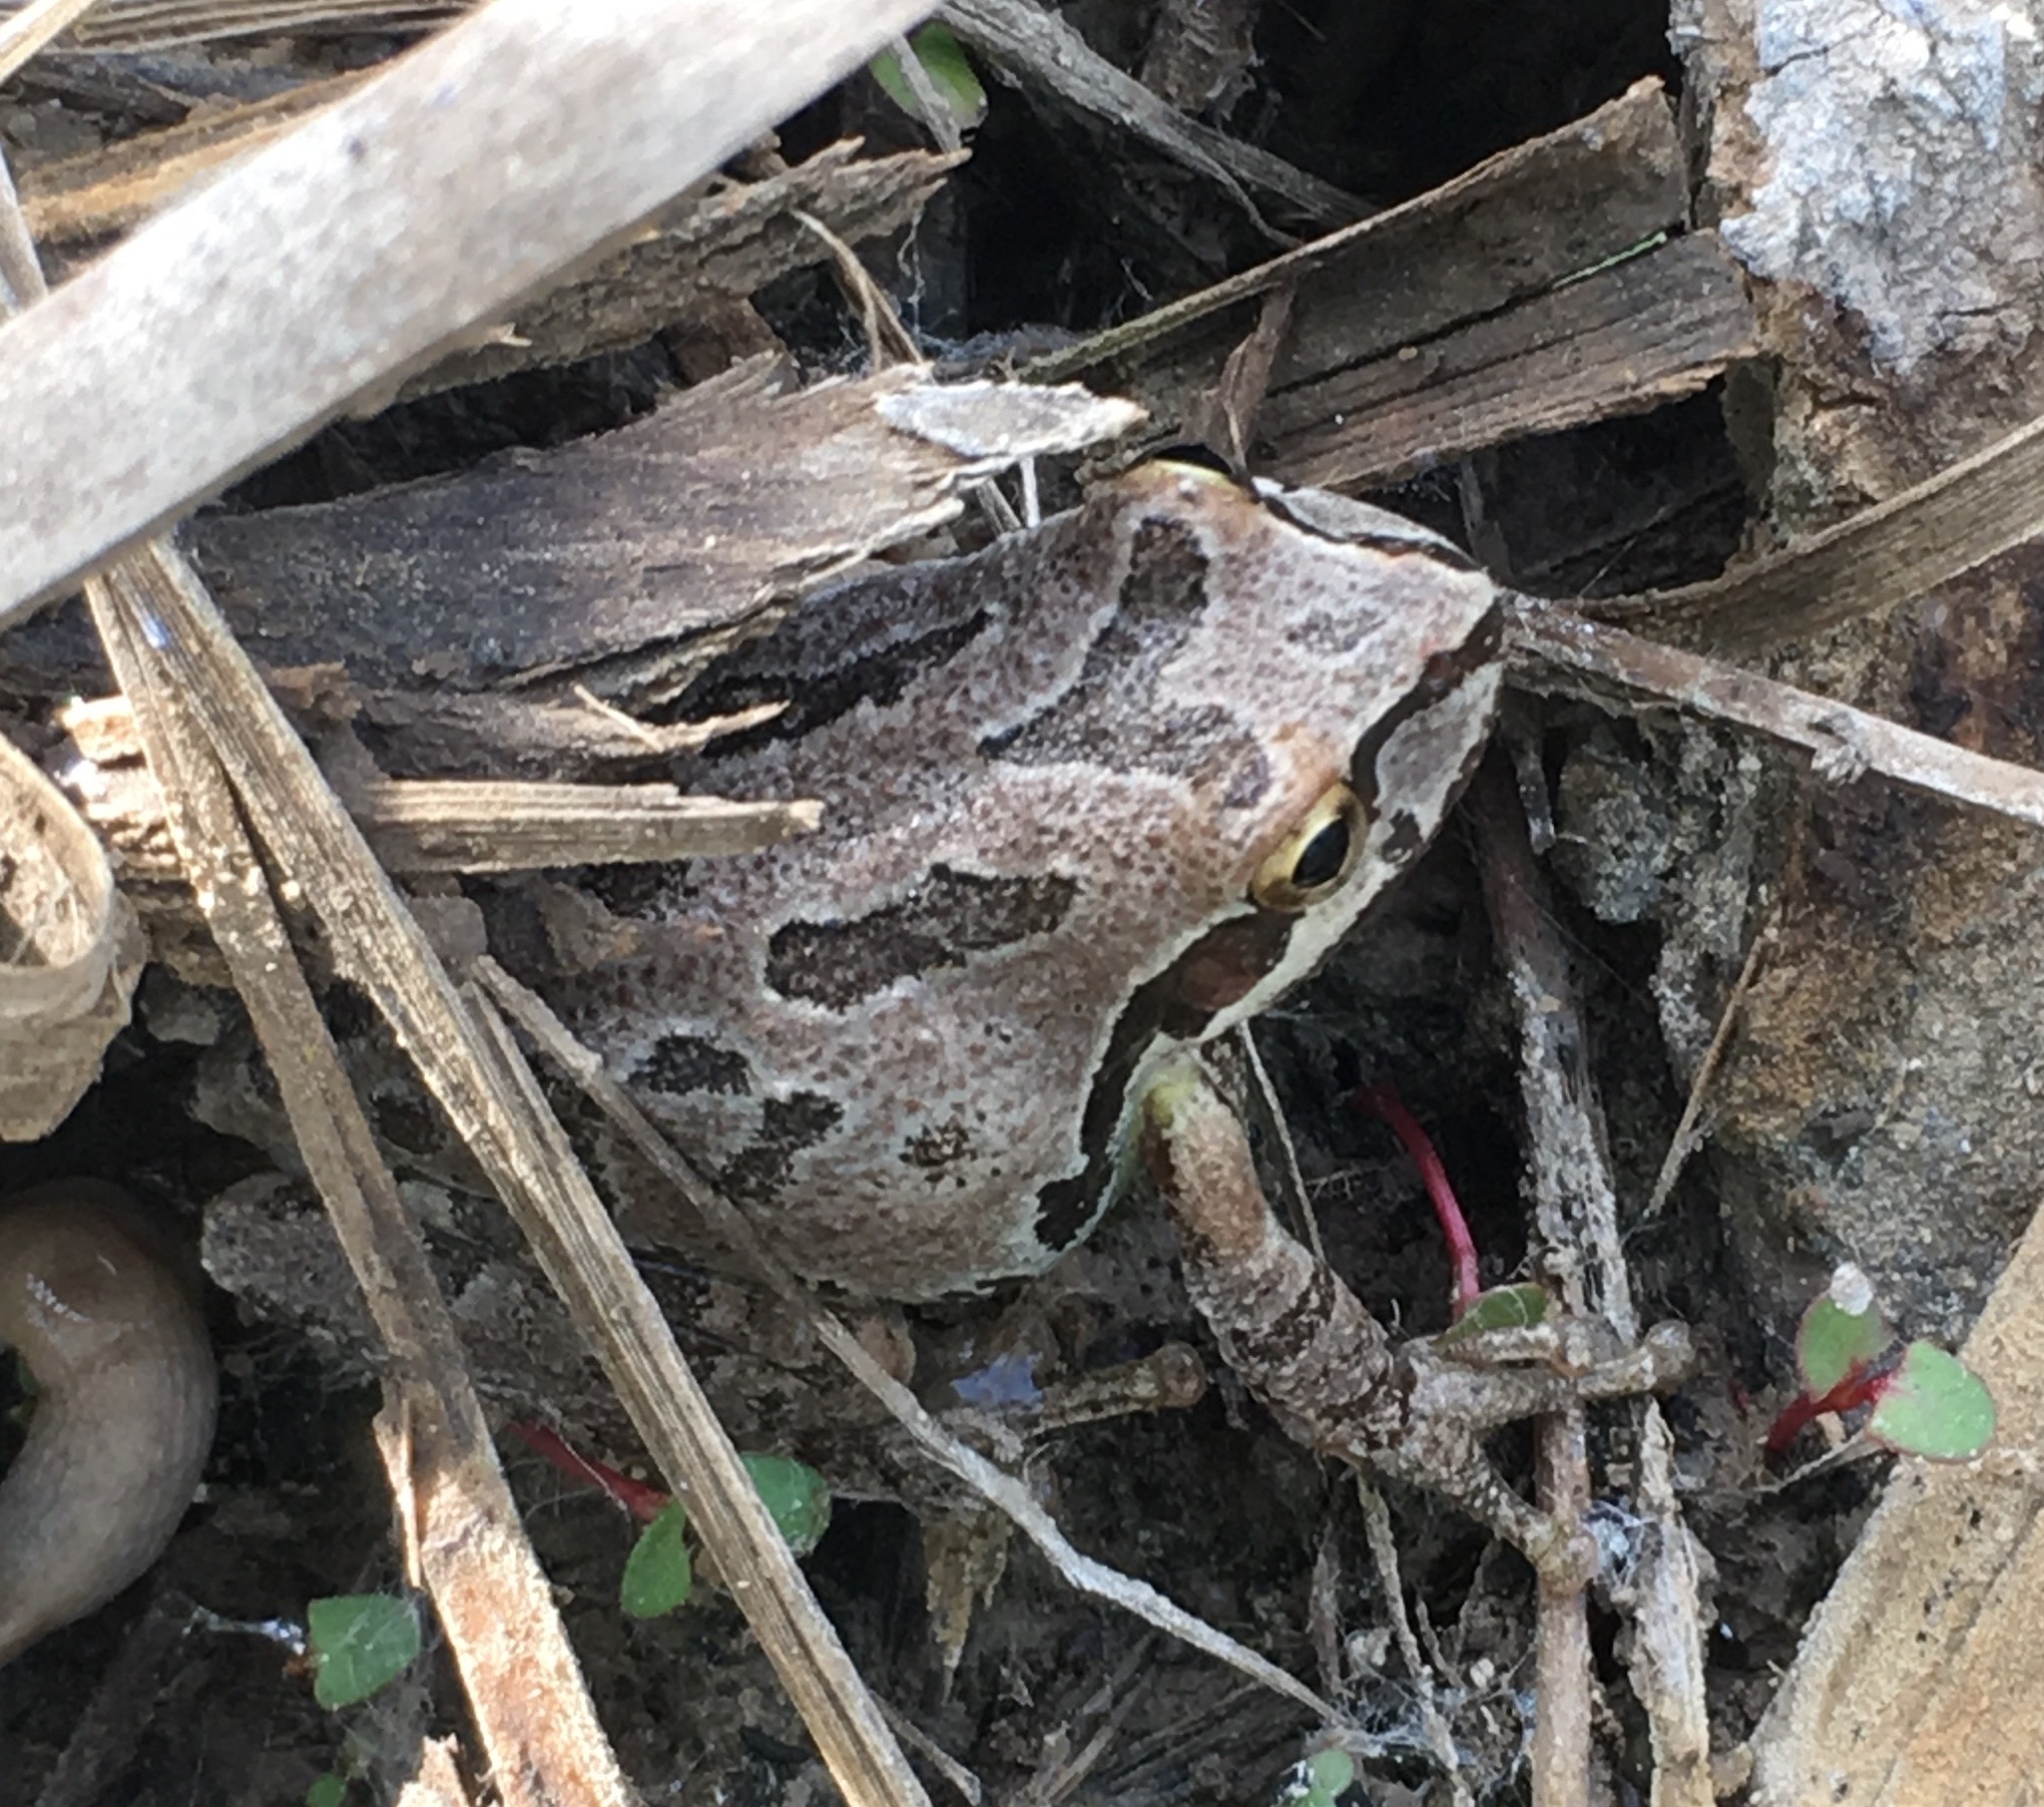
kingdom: Animalia
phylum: Chordata
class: Amphibia
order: Anura
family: Hylidae
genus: Pseudacris
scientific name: Pseudacris regilla
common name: Pacific chorus frog
